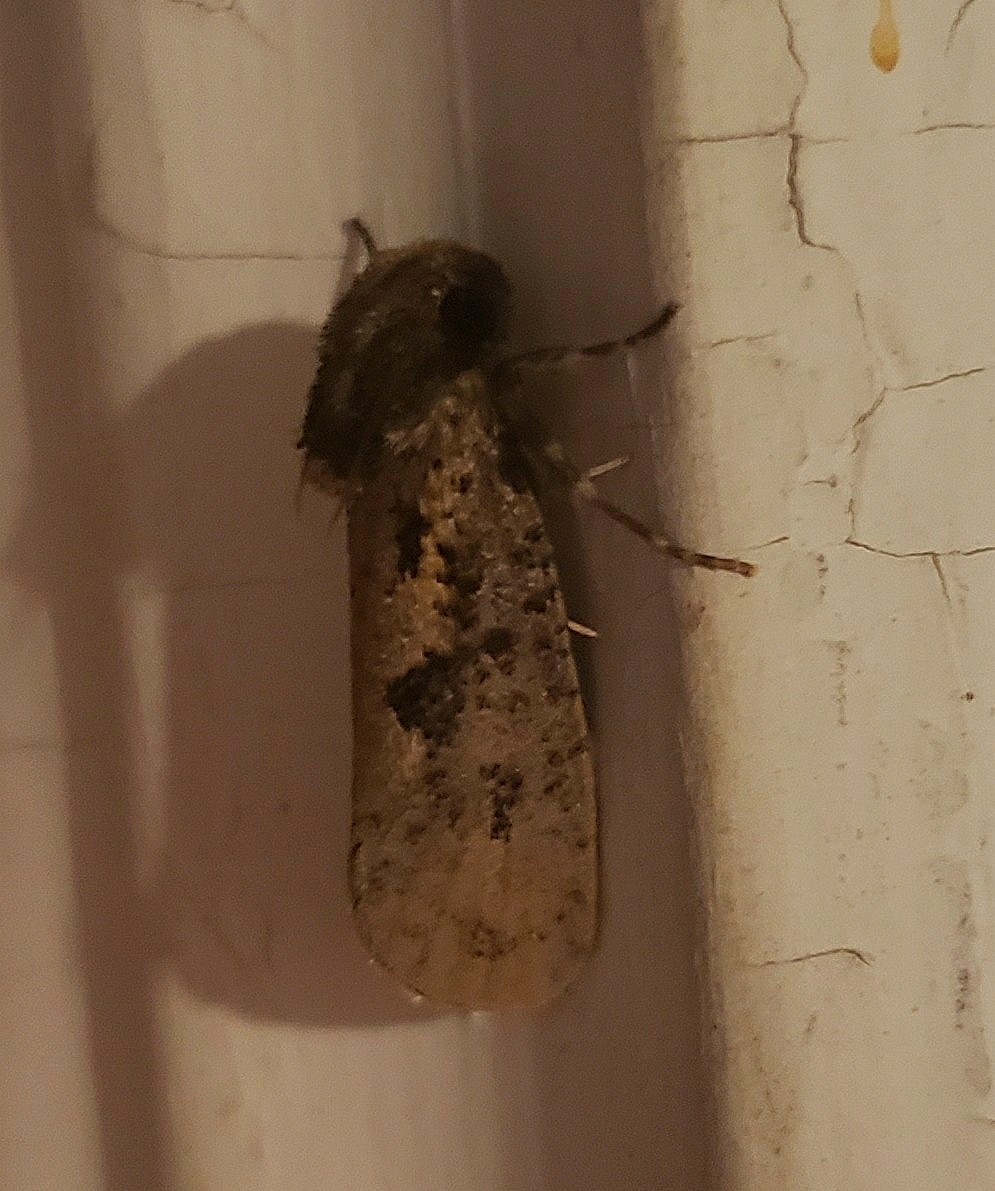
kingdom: Animalia
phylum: Arthropoda
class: Insecta
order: Lepidoptera
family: Tineidae
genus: Acrolophus
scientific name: Acrolophus popeanella
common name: Clemens' grass tubeworm moth
